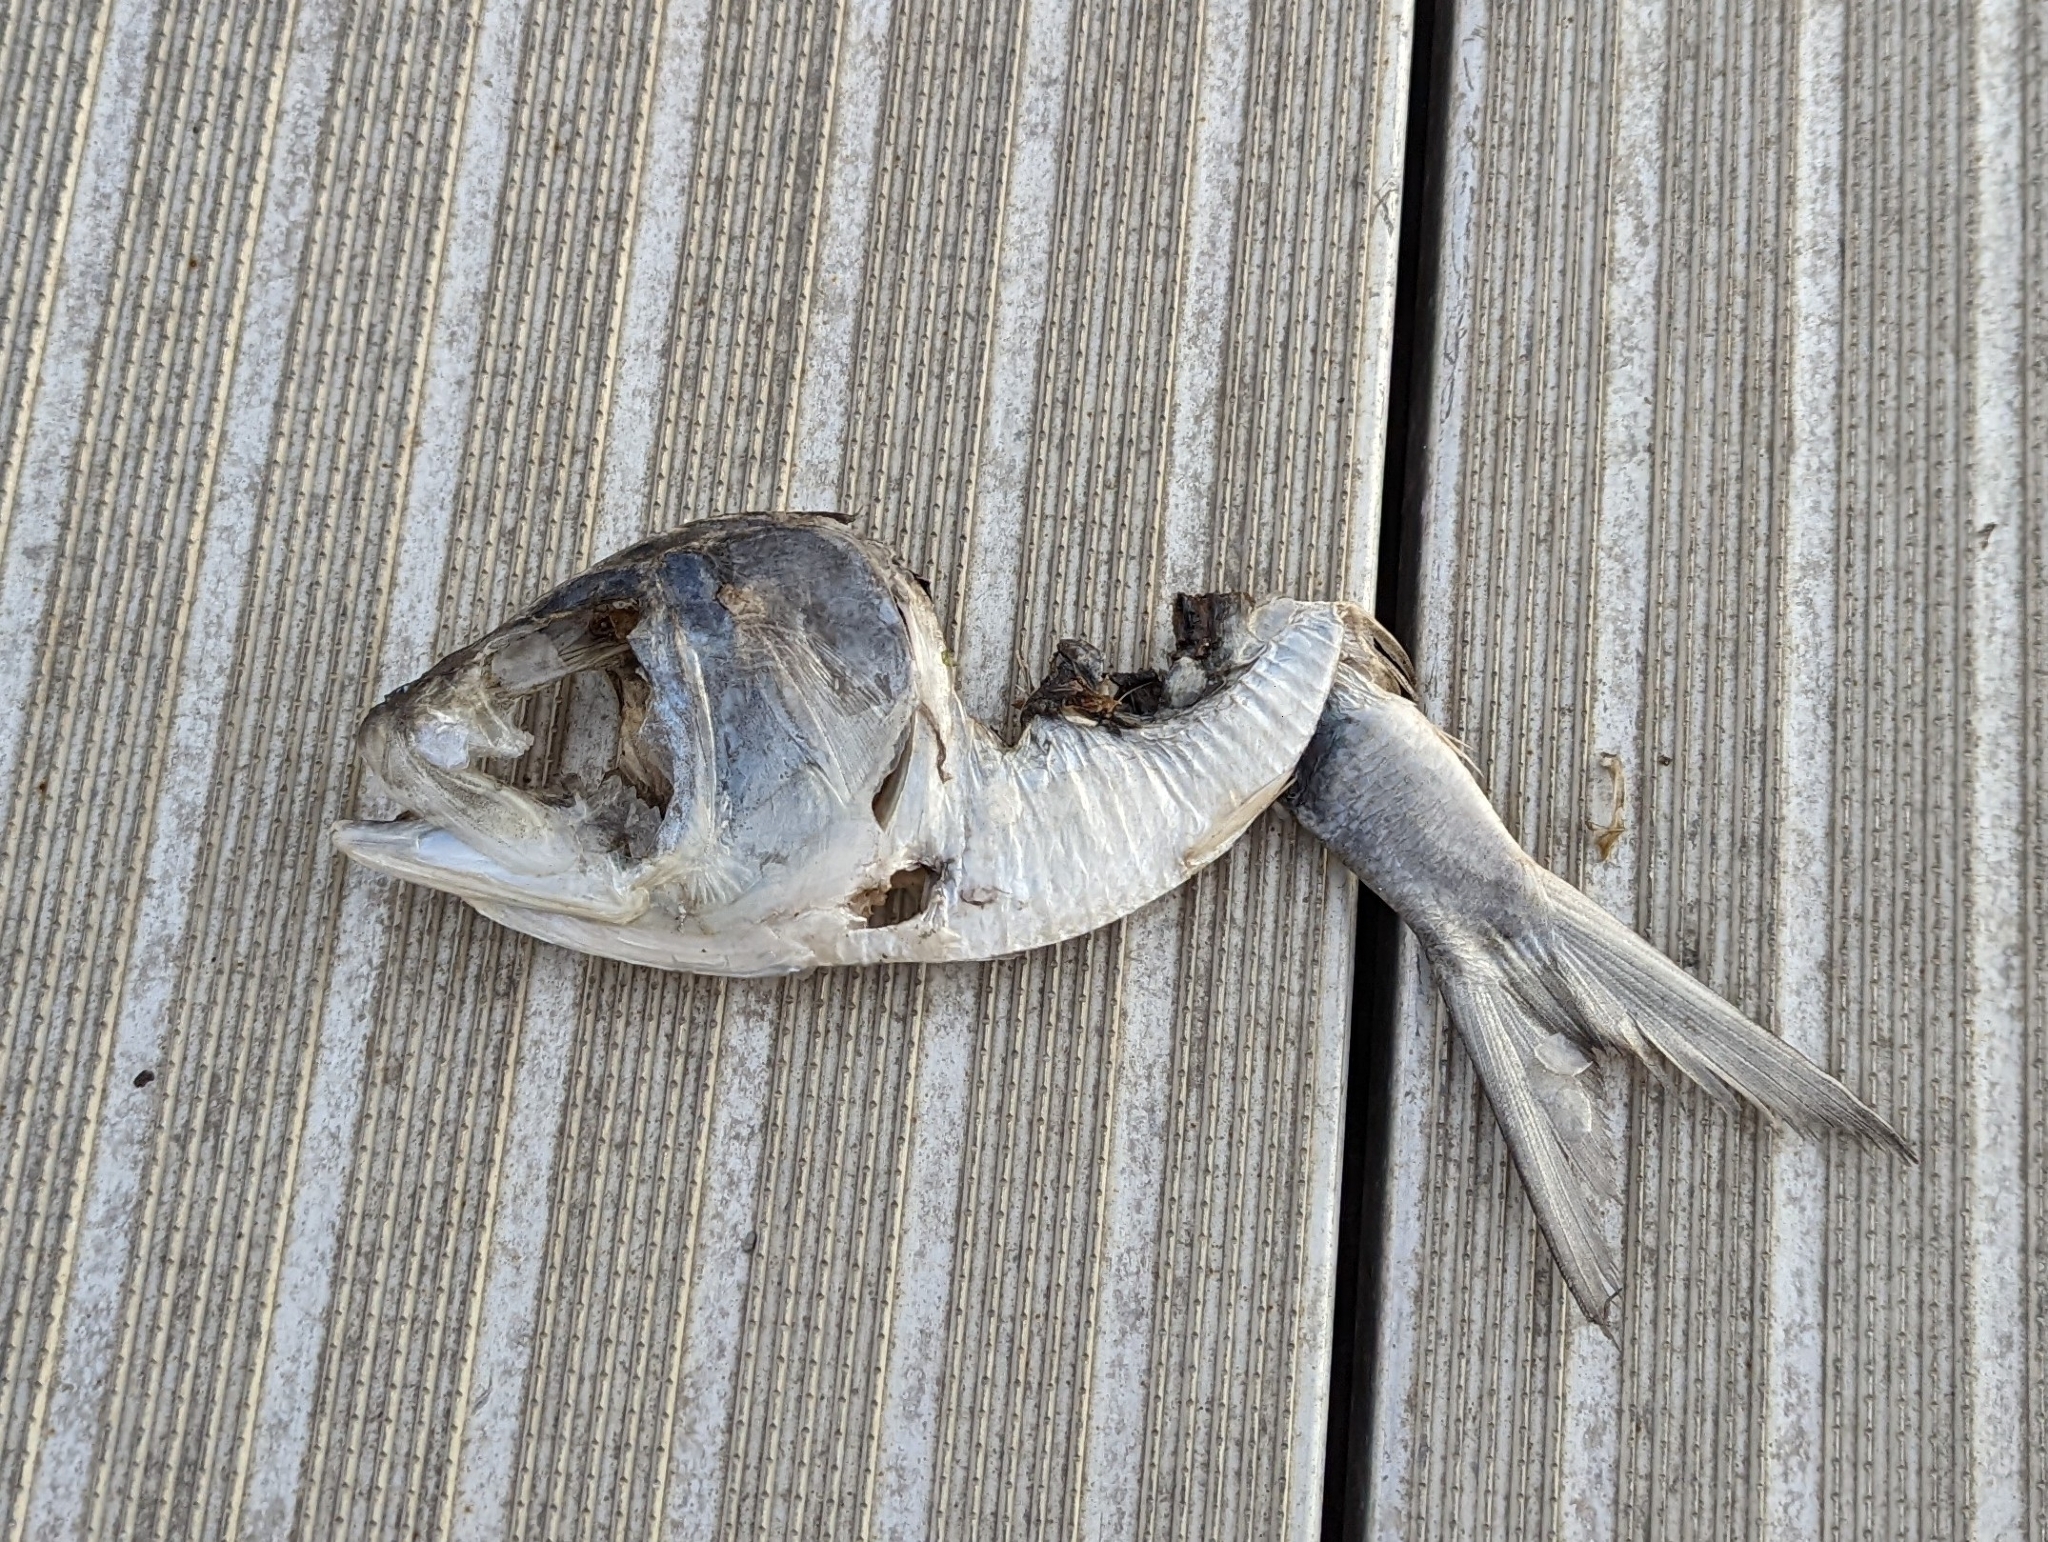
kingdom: Animalia
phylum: Chordata
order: Clupeiformes
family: Clupeidae
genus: Brevoortia
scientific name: Brevoortia tyrannus
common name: Atlantic menhaden
